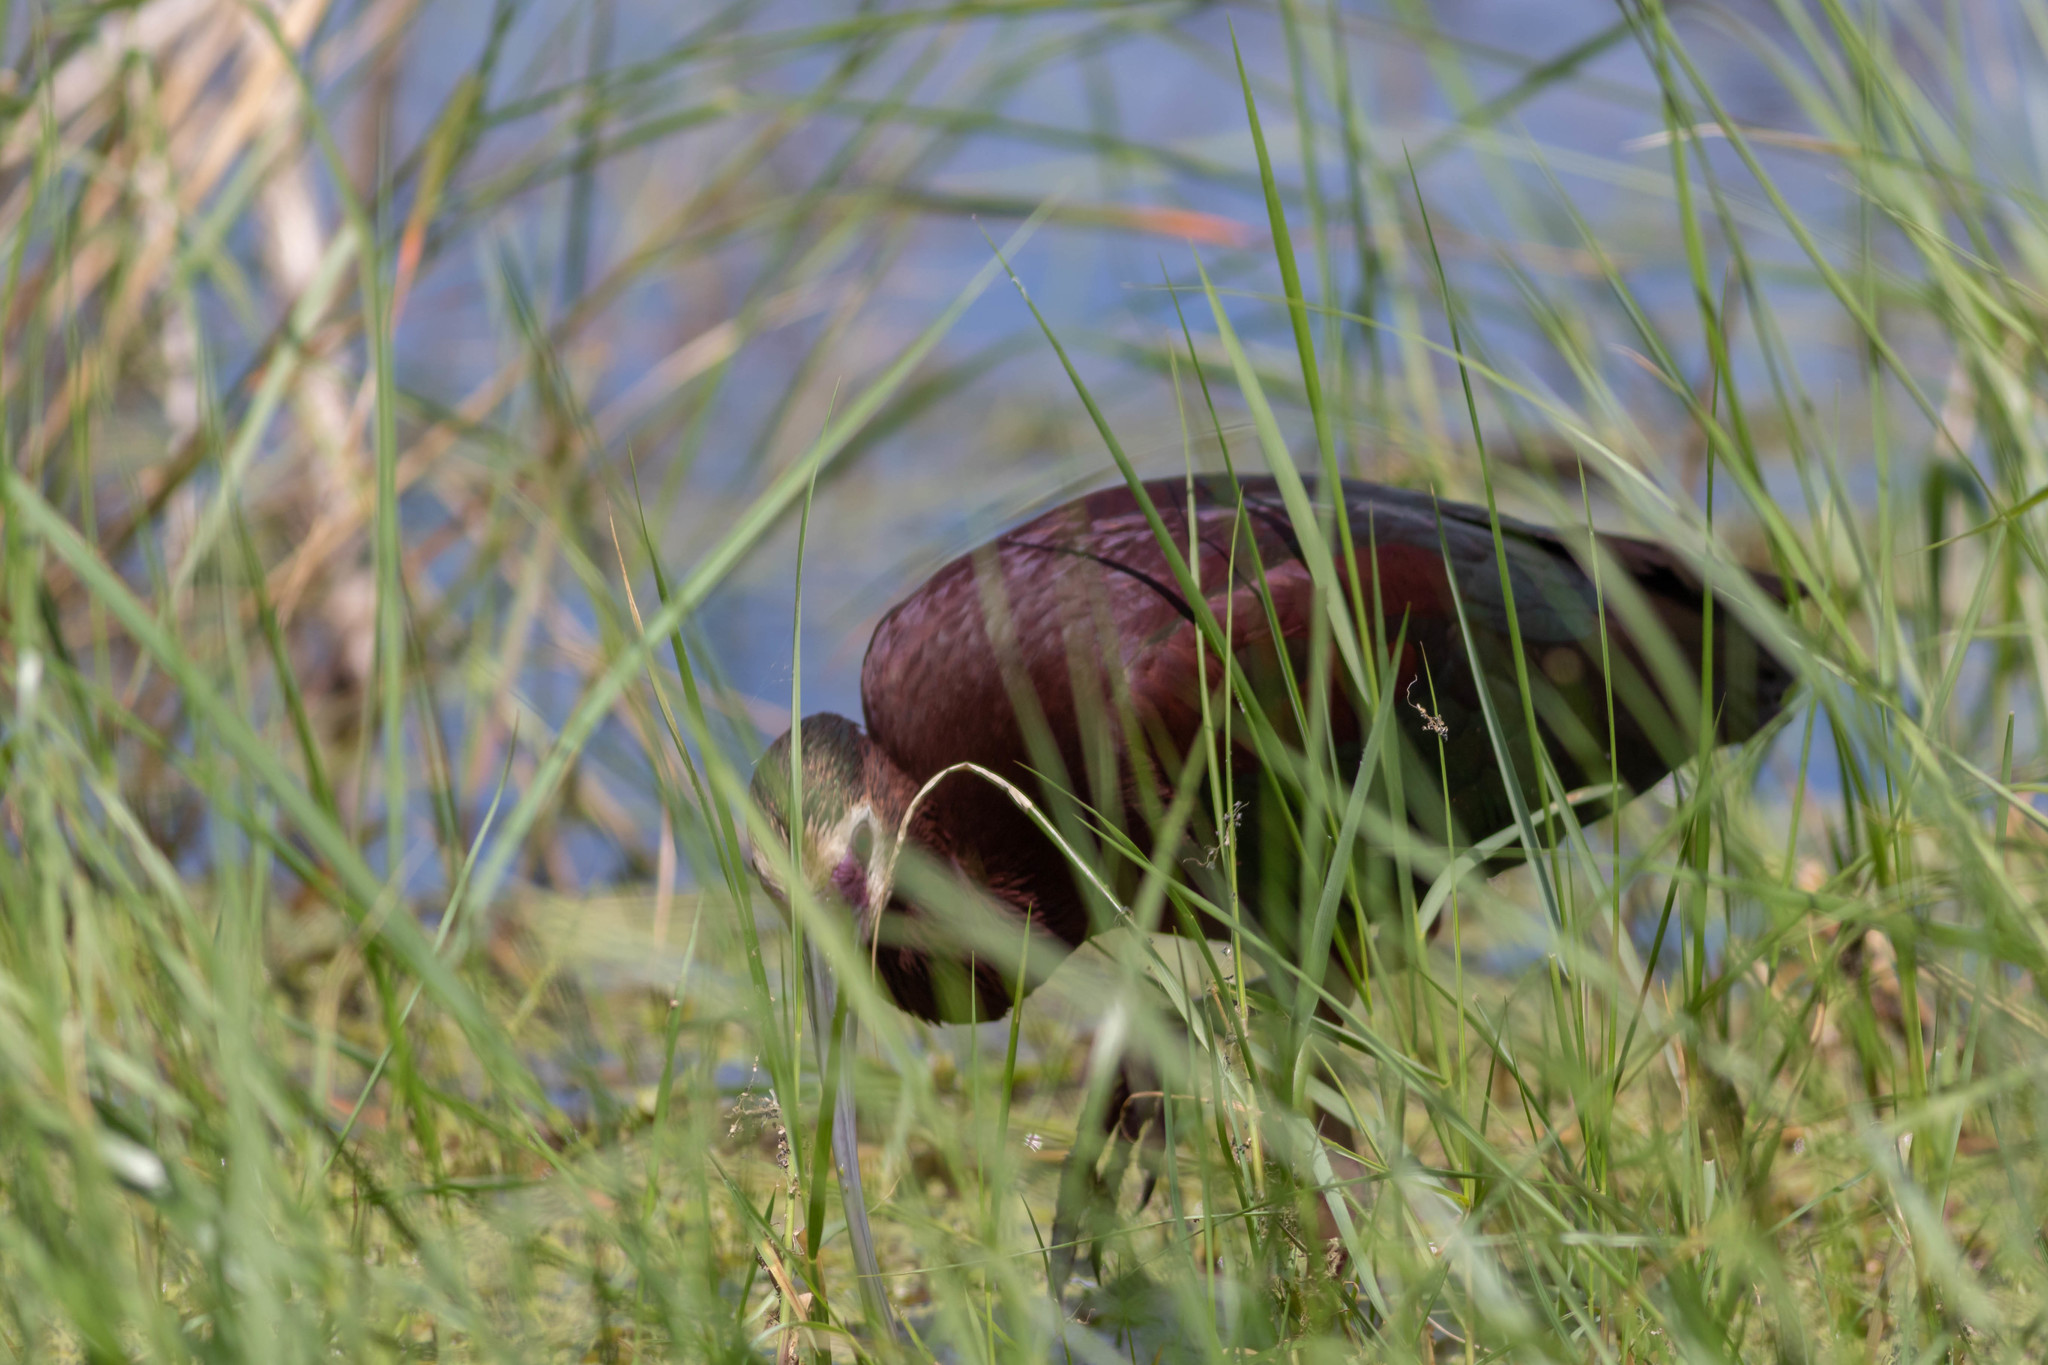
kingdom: Animalia
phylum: Chordata
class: Aves
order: Pelecaniformes
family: Threskiornithidae
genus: Plegadis
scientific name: Plegadis chihi
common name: White-faced ibis
